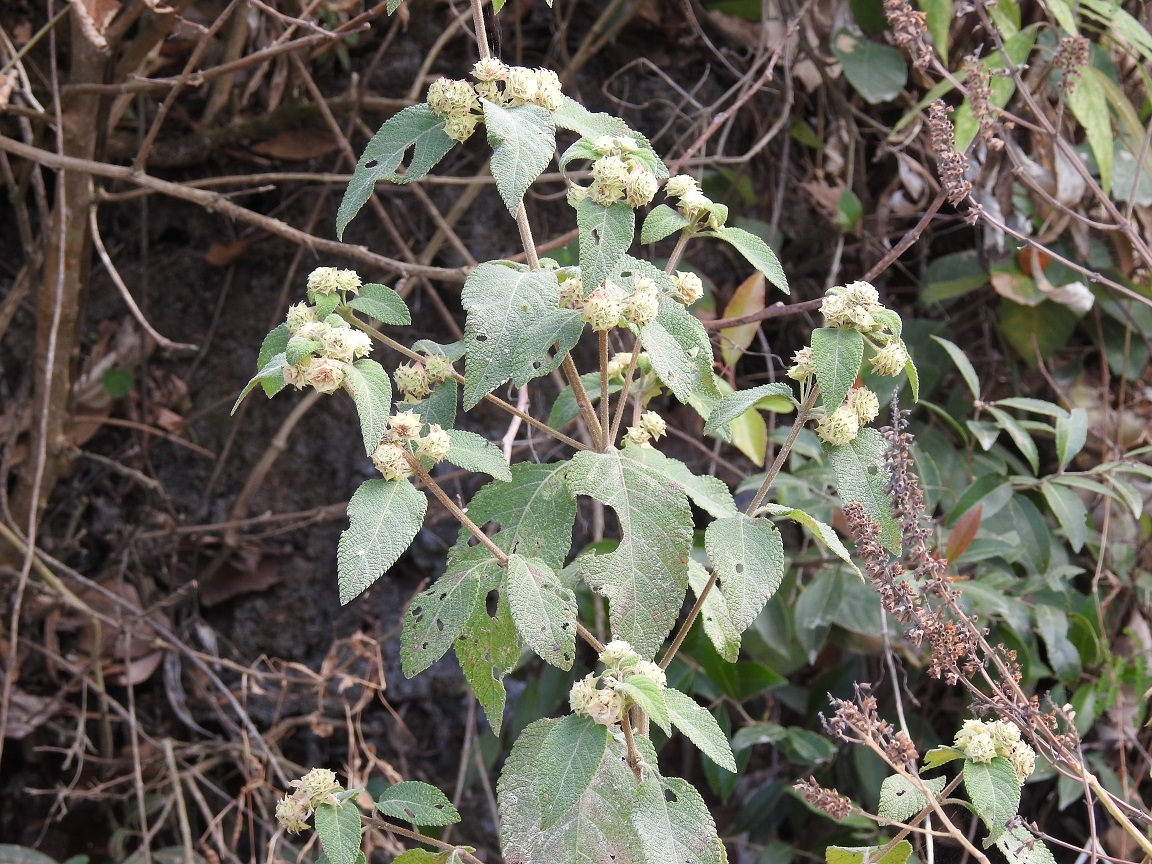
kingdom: Plantae
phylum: Tracheophyta
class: Magnoliopsida
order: Lamiales
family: Verbenaceae
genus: Lippia
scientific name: Lippia myriocephala
